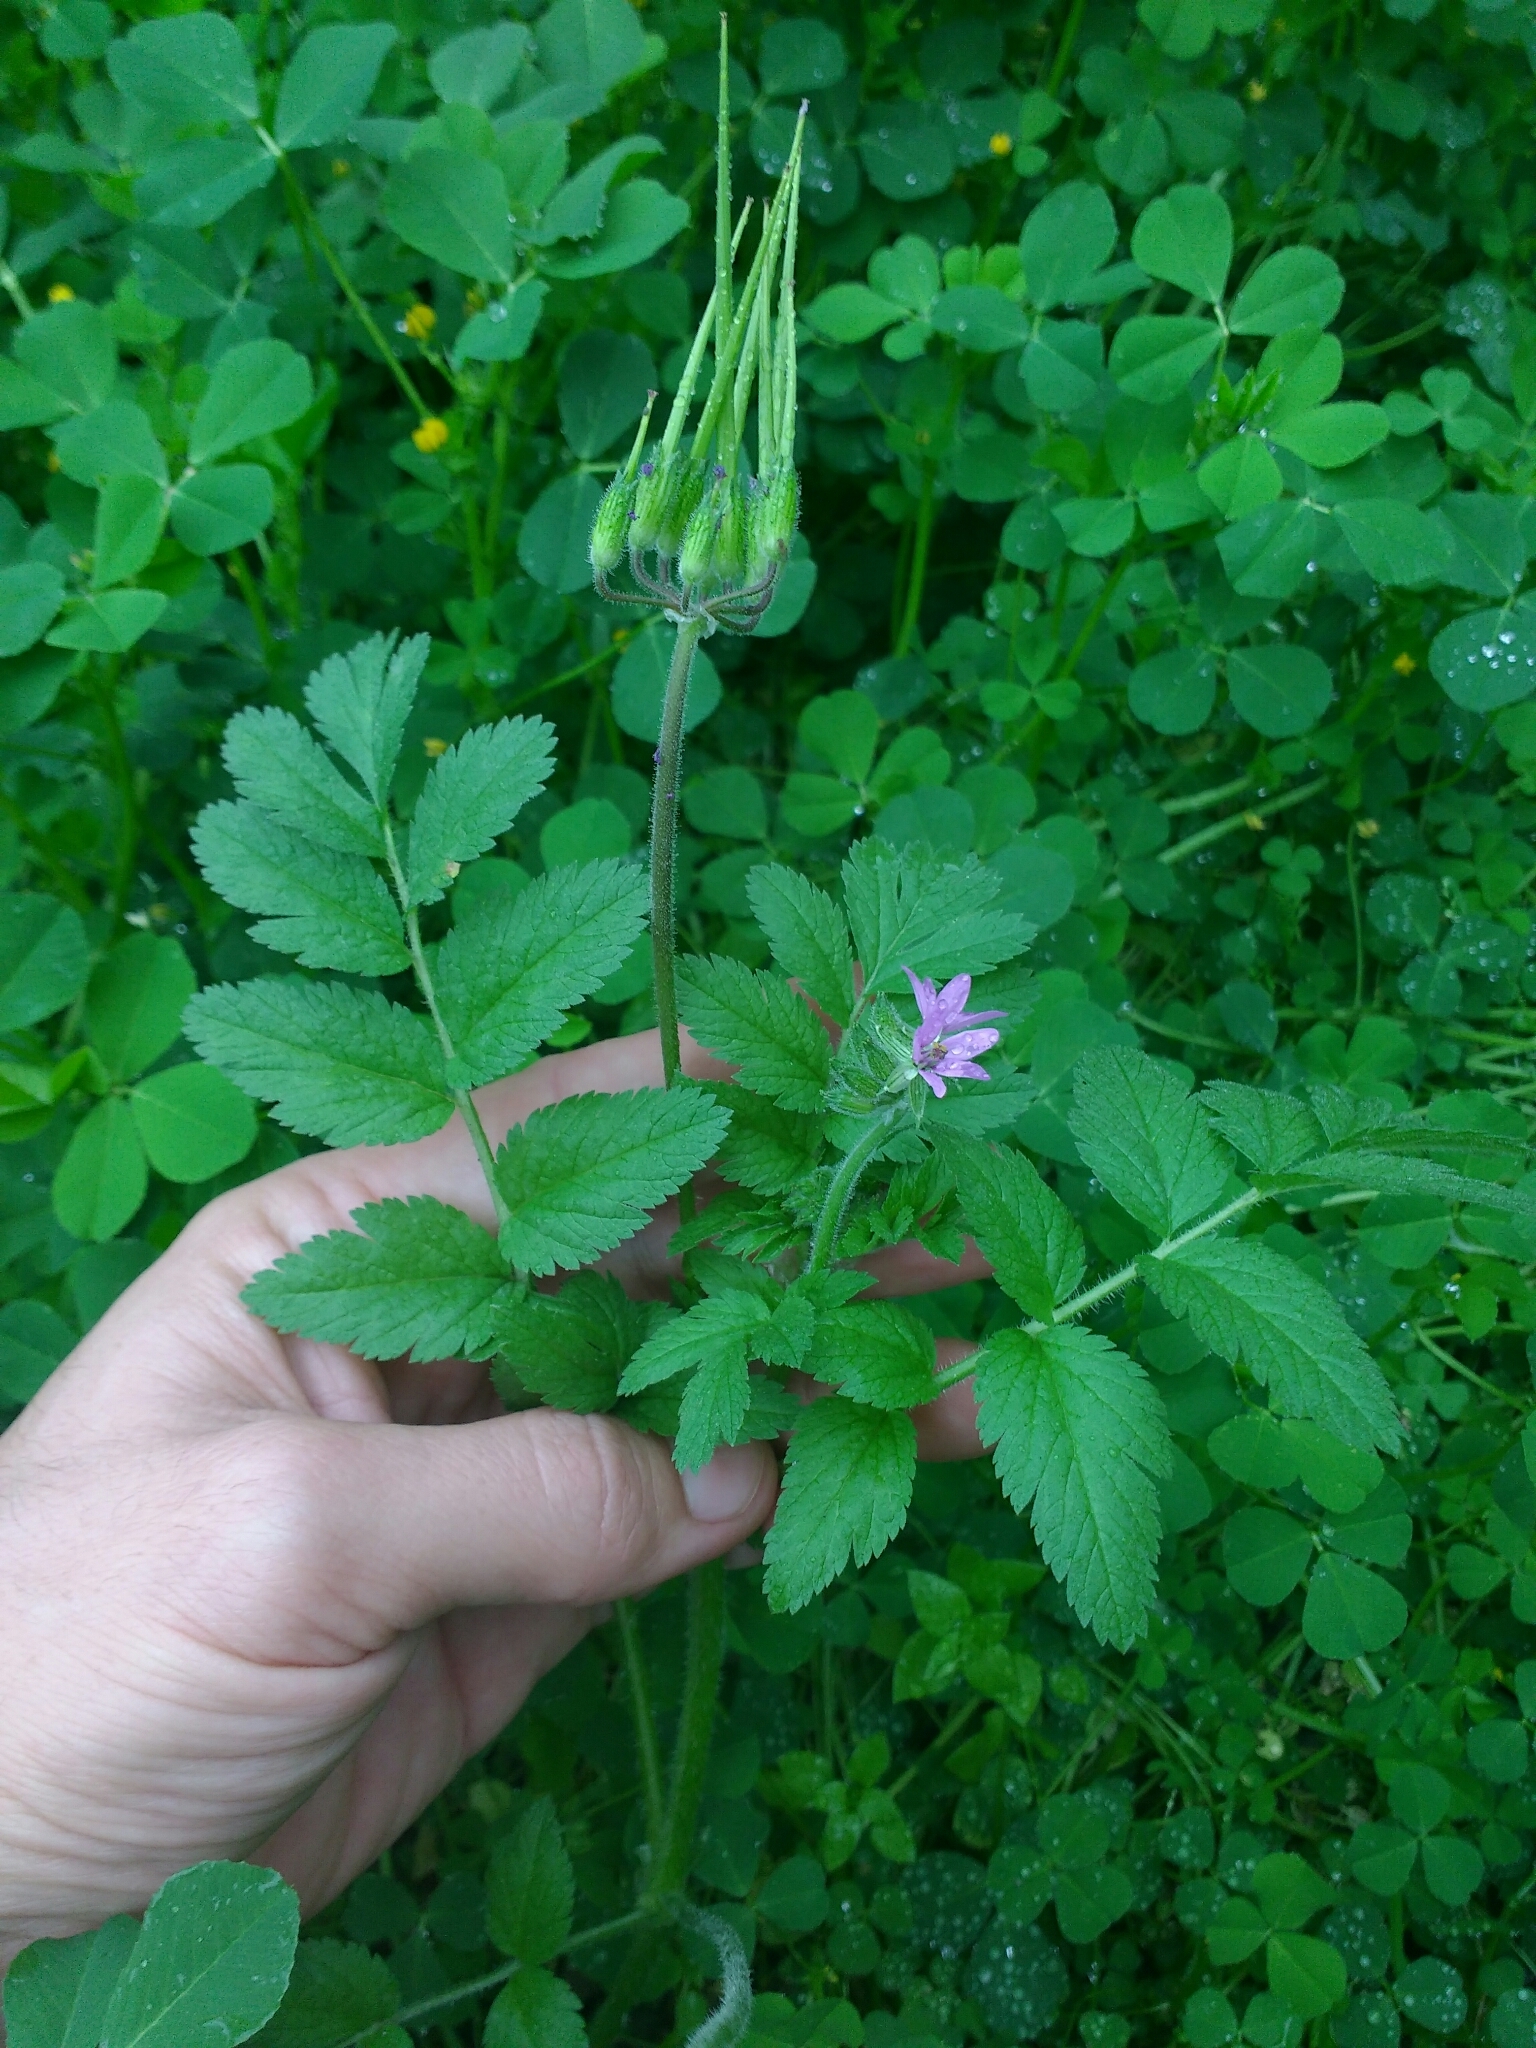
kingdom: Plantae
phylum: Tracheophyta
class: Magnoliopsida
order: Geraniales
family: Geraniaceae
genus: Erodium
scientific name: Erodium moschatum
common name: Musk stork's-bill
